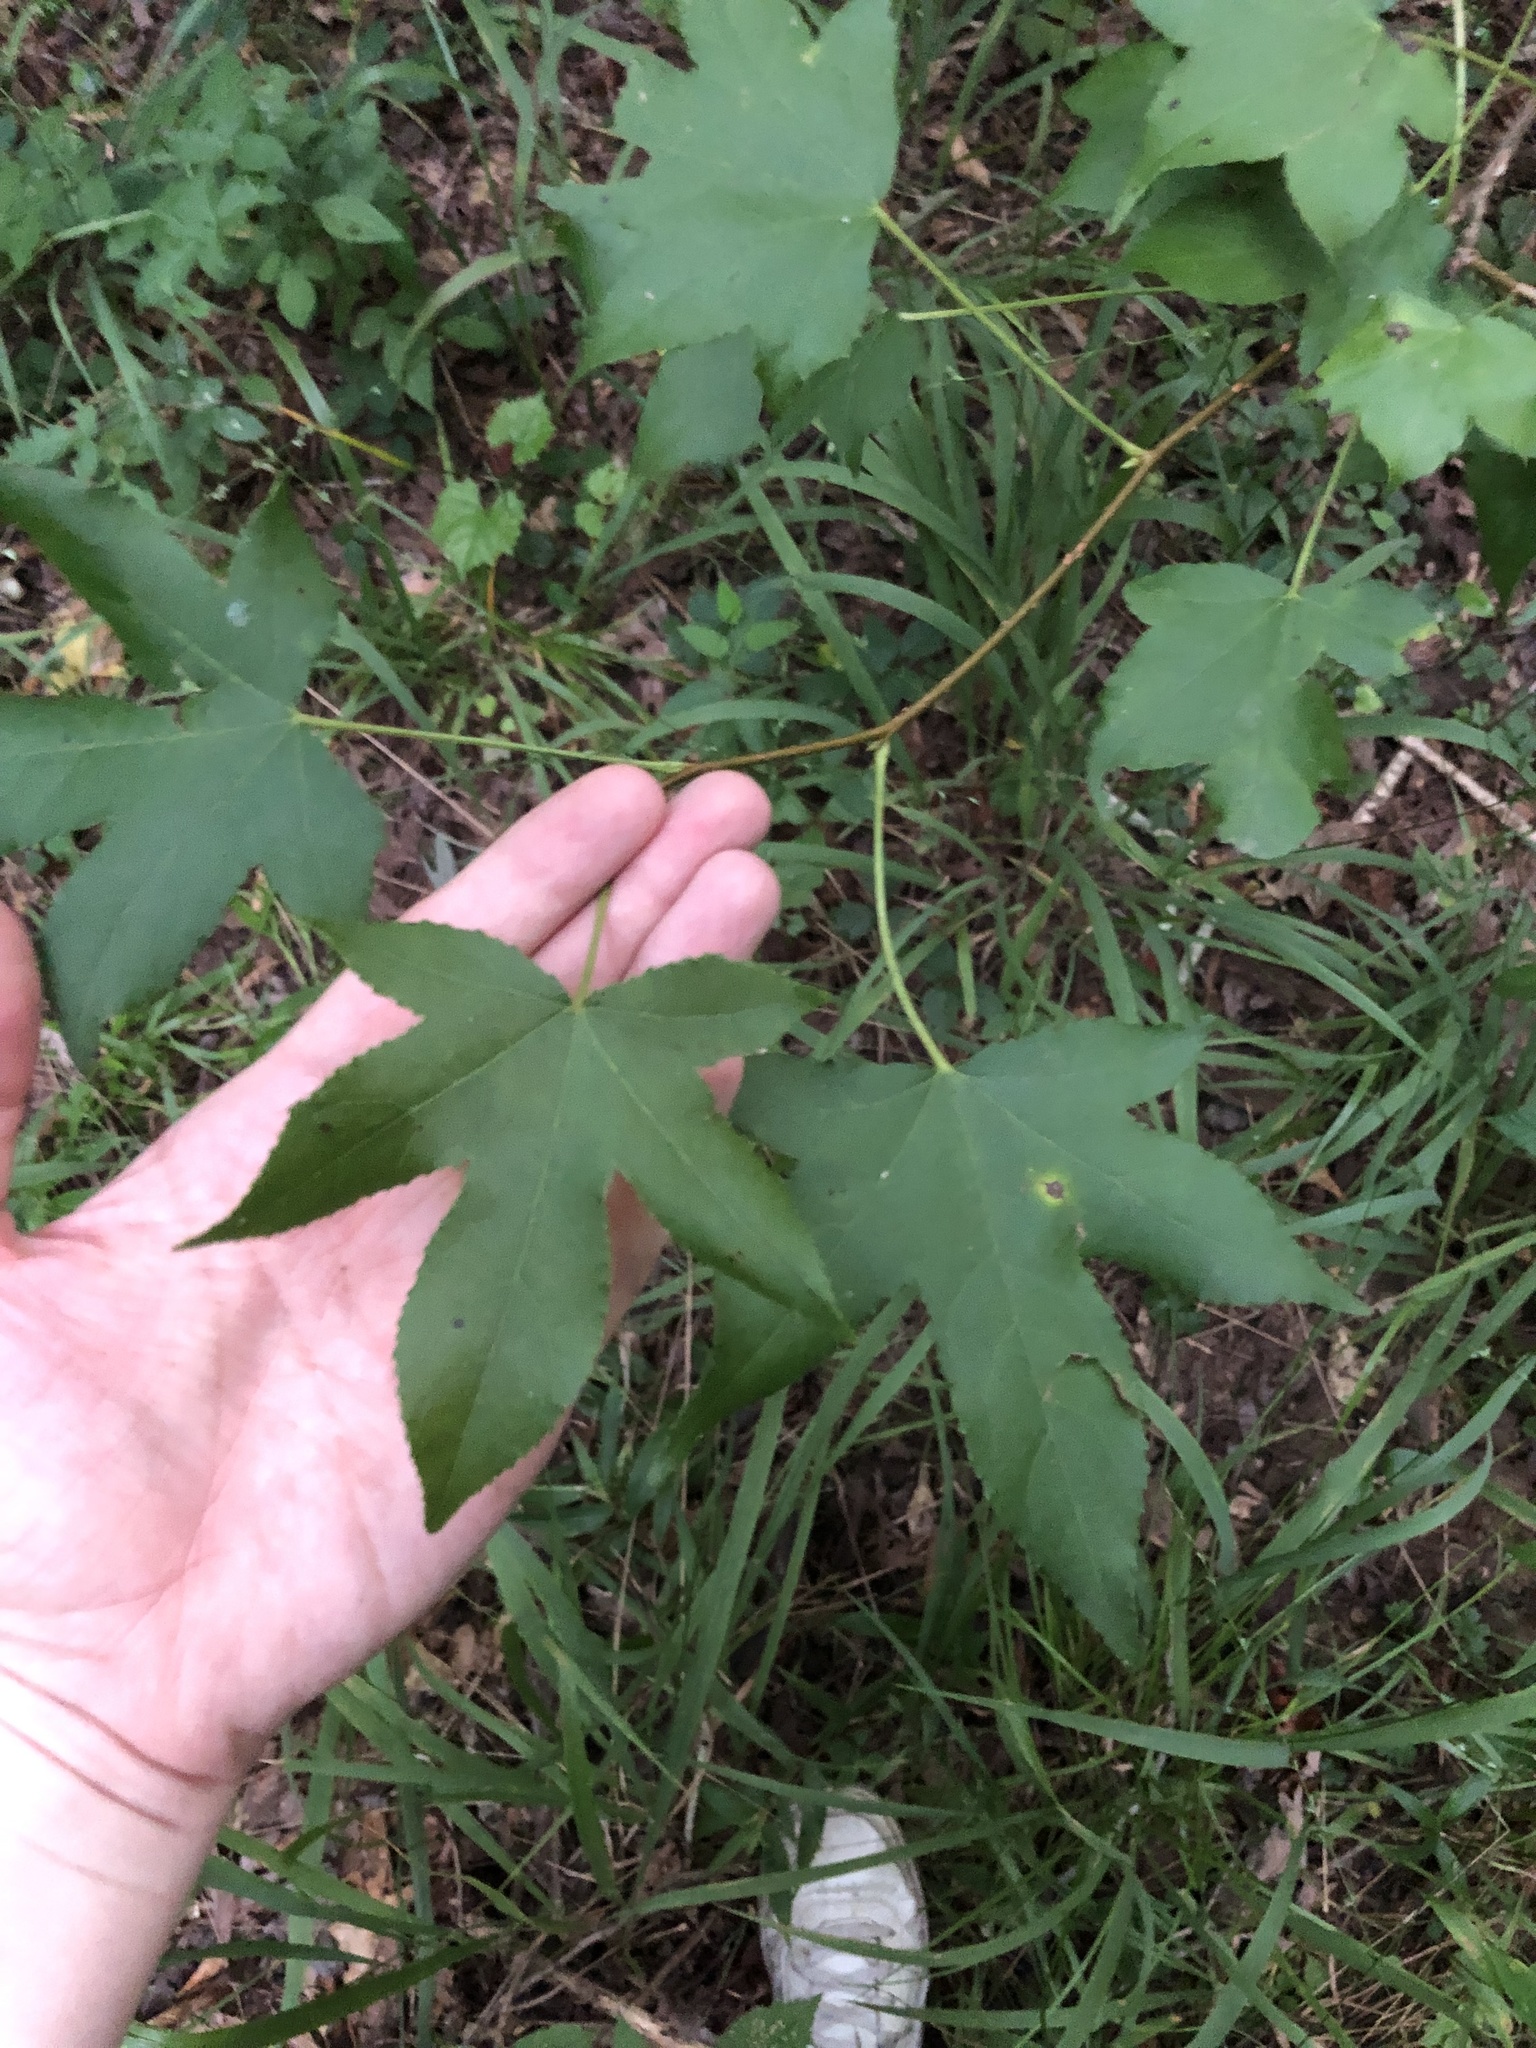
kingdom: Plantae
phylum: Tracheophyta
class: Magnoliopsida
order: Saxifragales
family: Altingiaceae
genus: Liquidambar
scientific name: Liquidambar styraciflua
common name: Sweet gum
